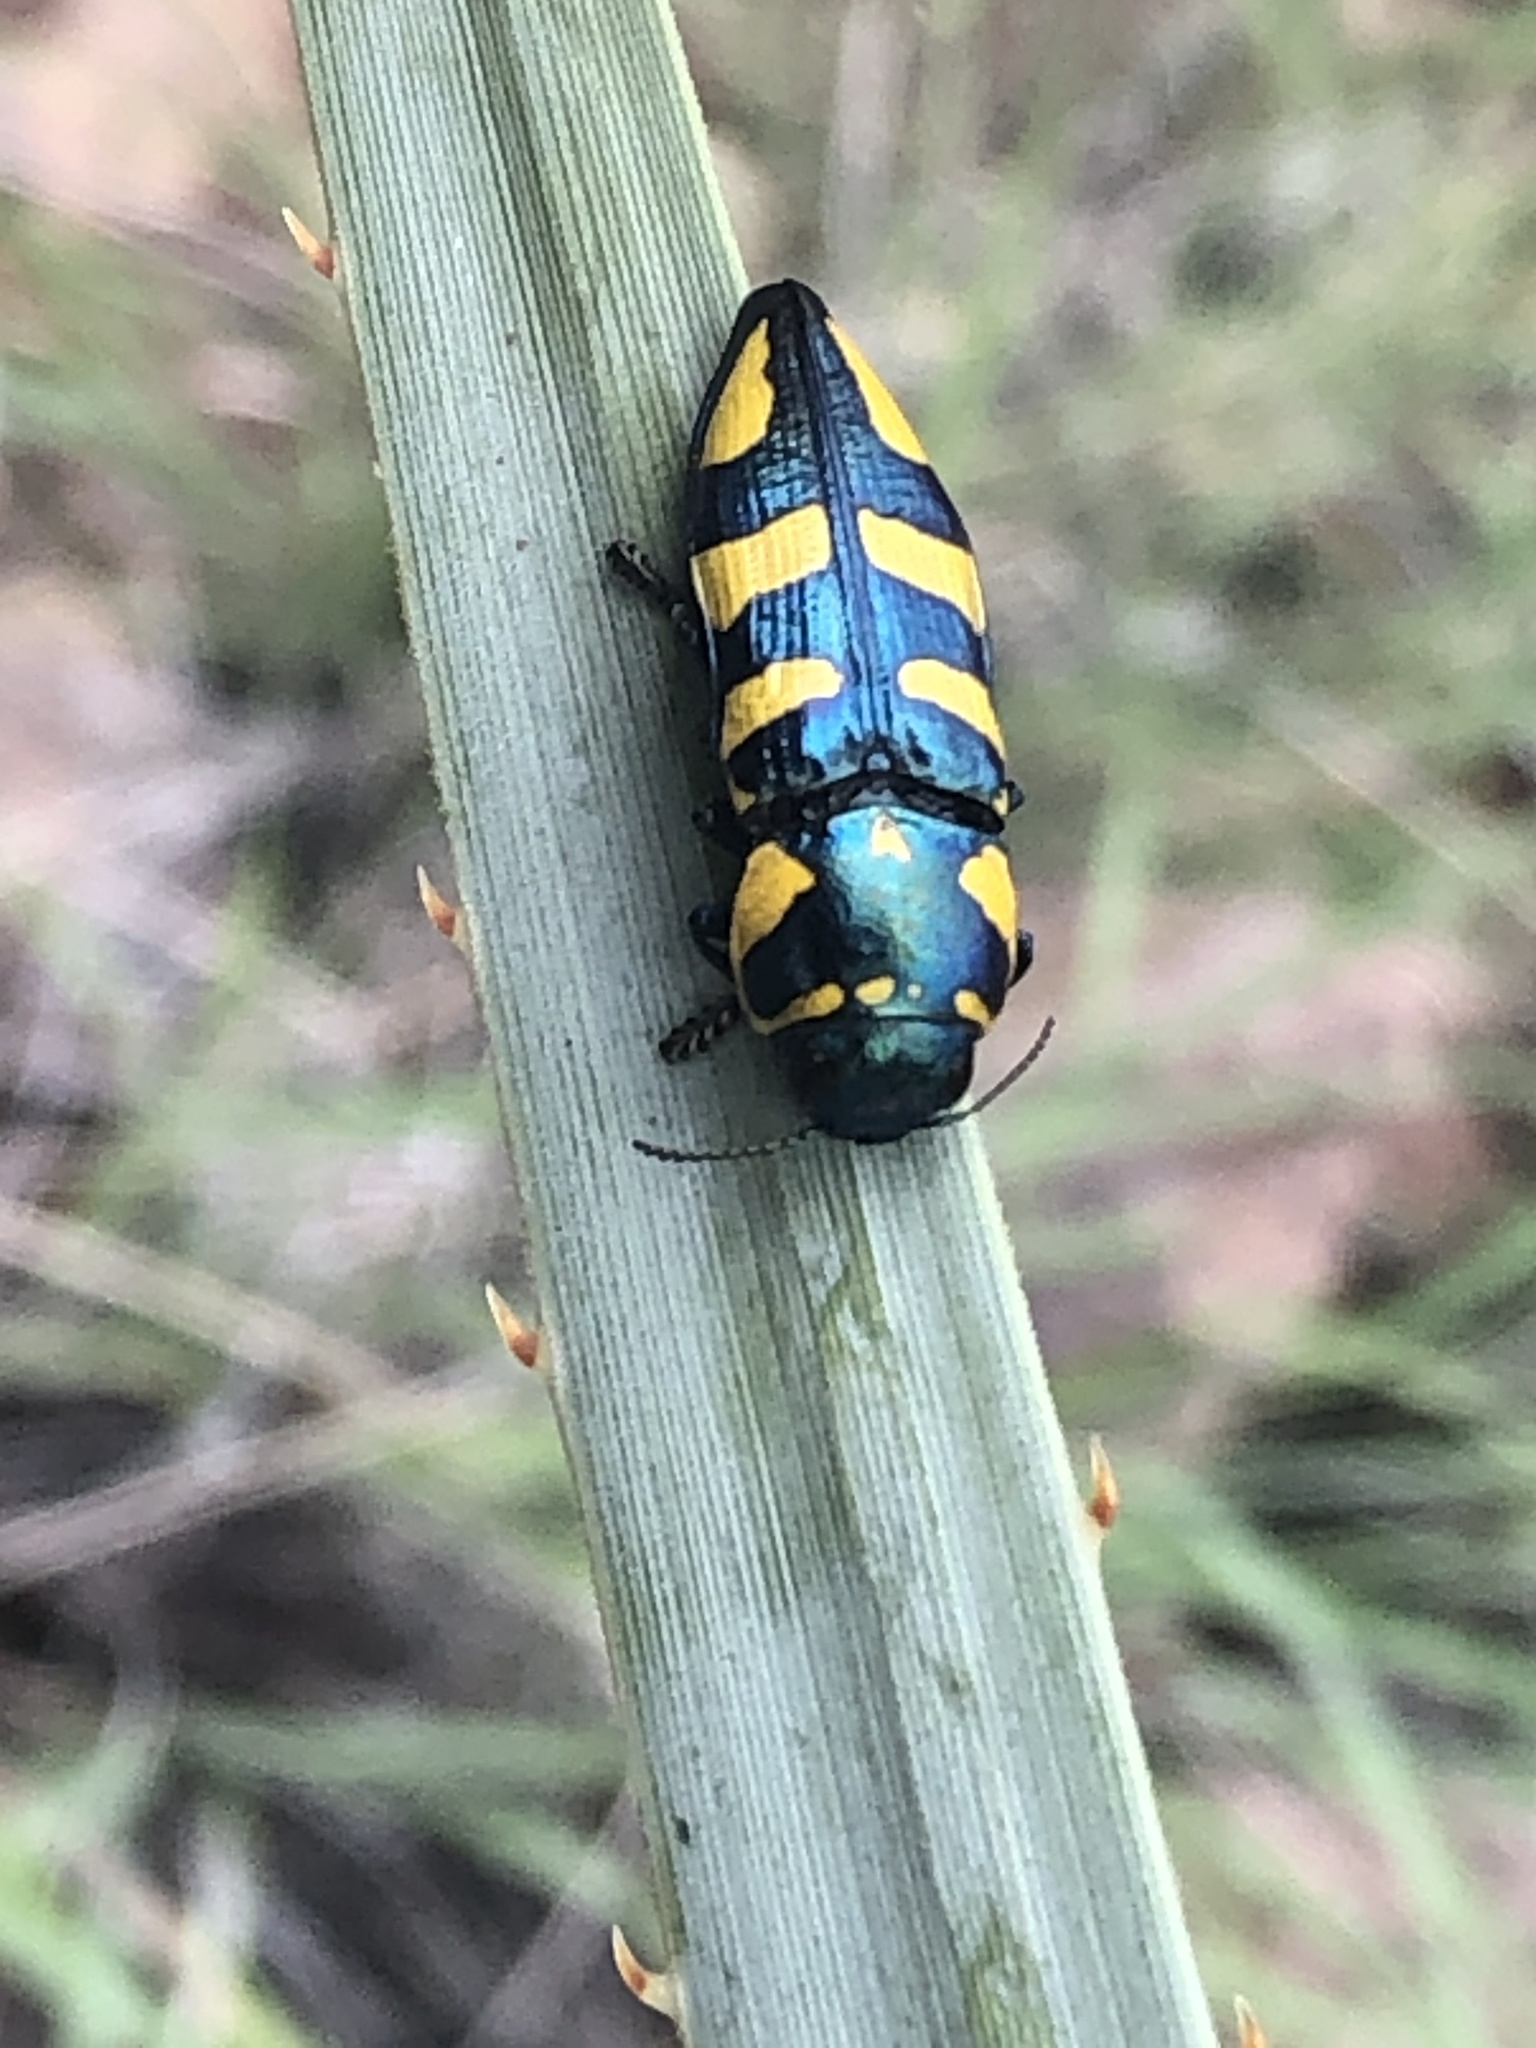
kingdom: Animalia
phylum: Arthropoda
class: Insecta
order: Coleoptera
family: Buprestidae
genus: Thrincopyge
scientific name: Thrincopyge alacris
